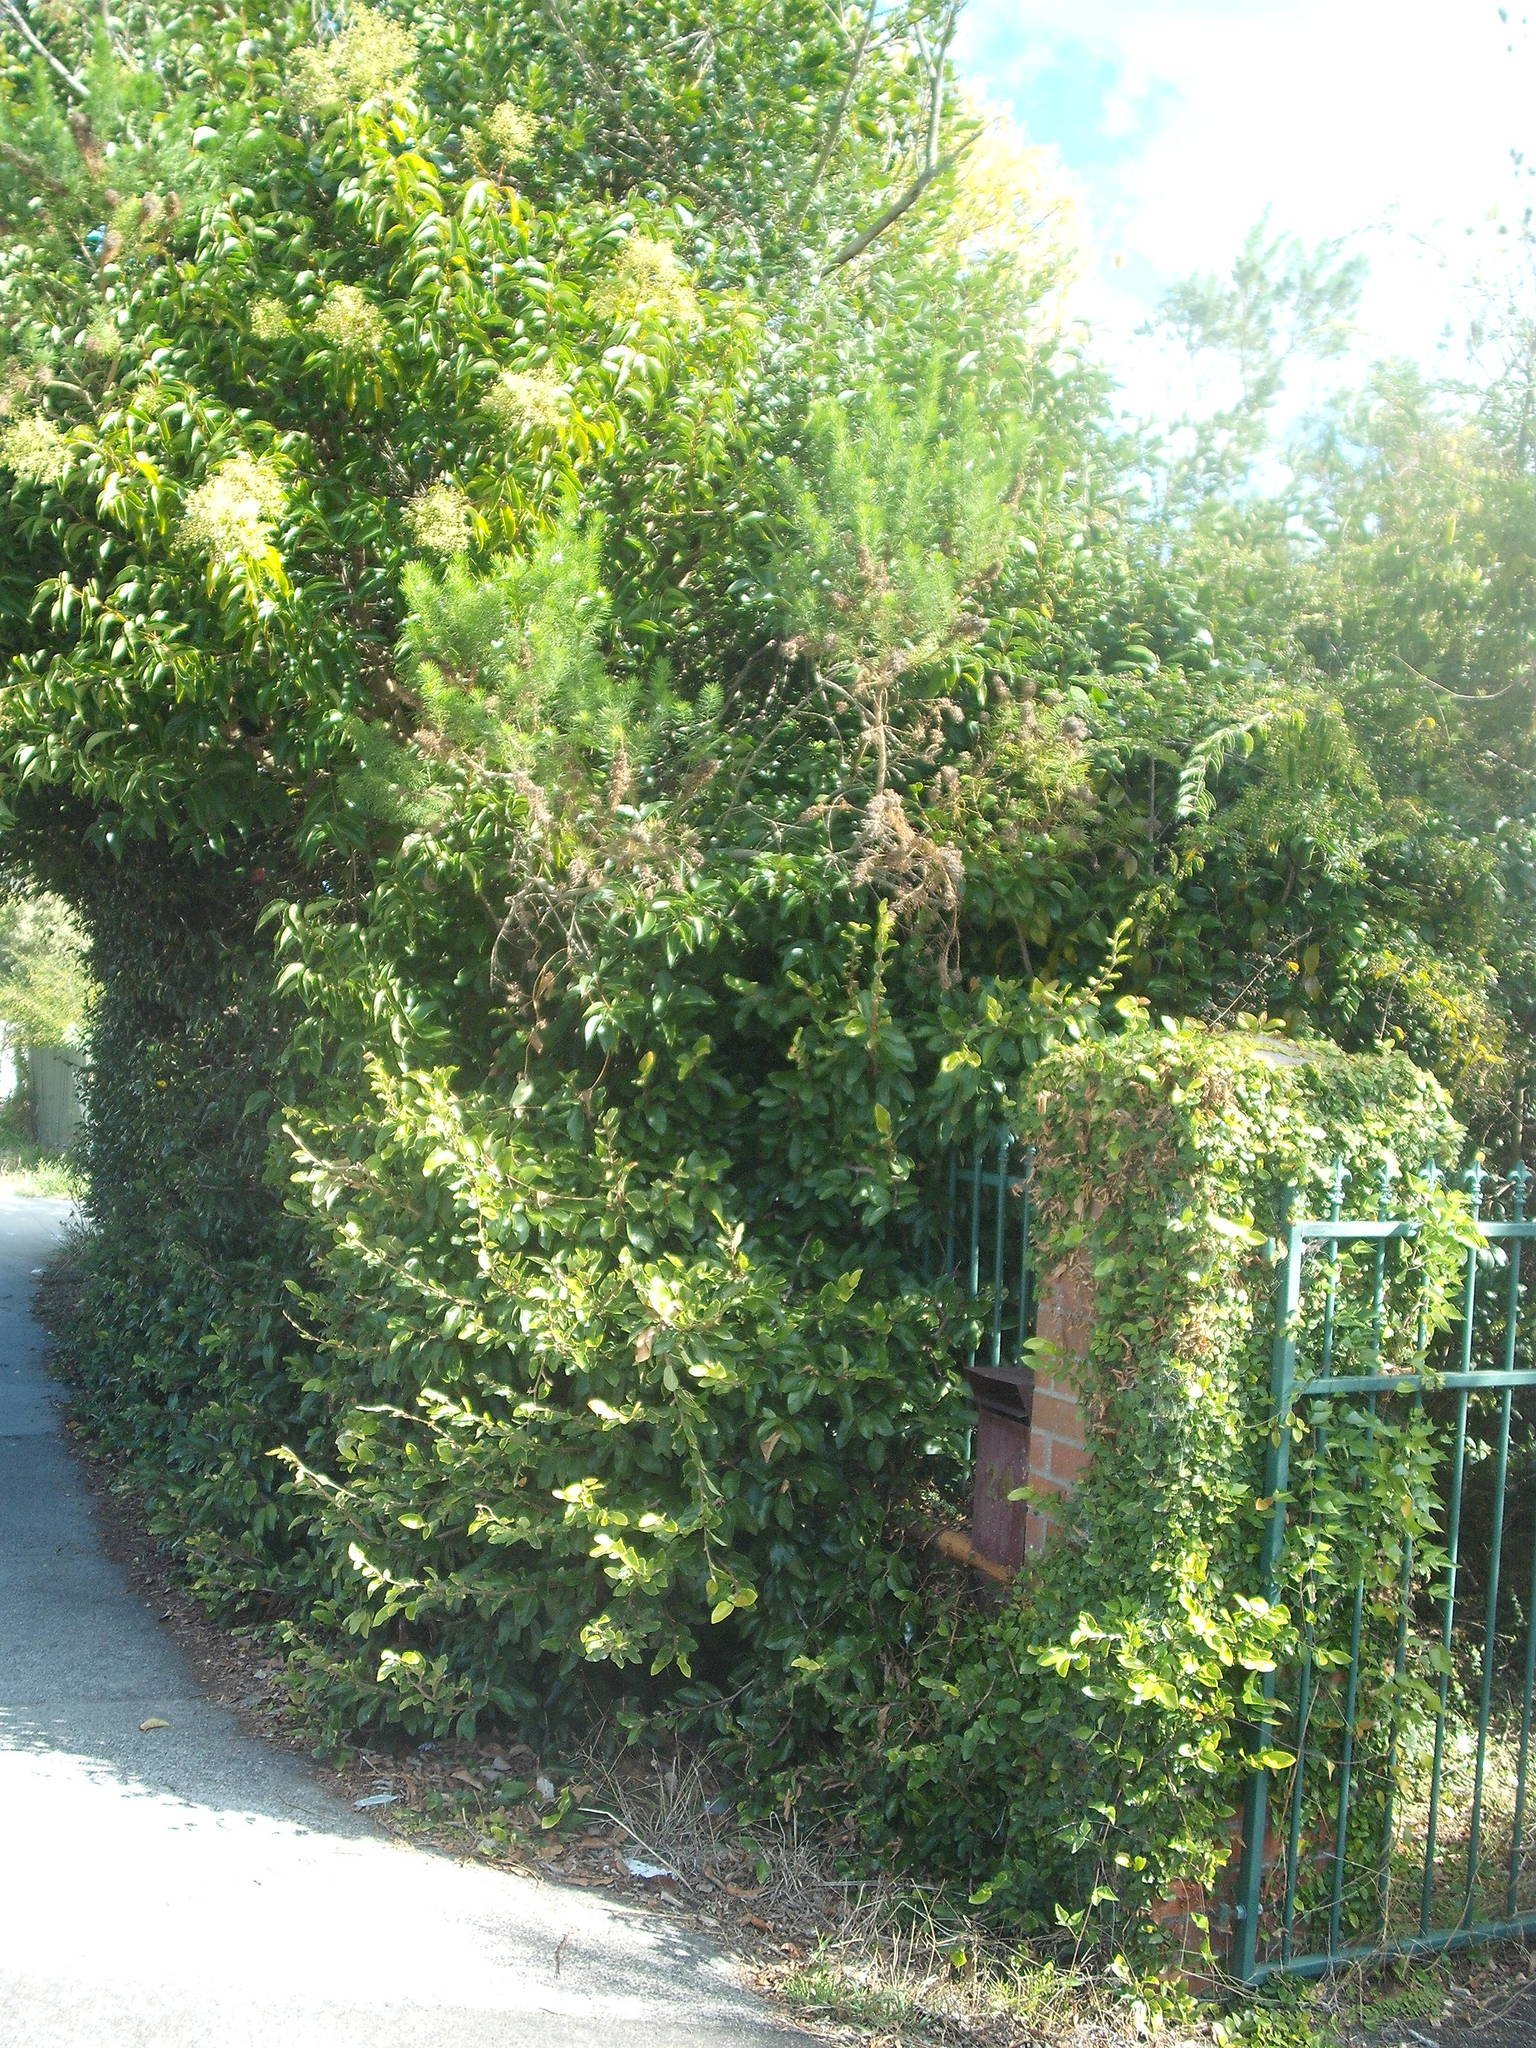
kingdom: Plantae
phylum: Tracheophyta
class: Magnoliopsida
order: Fabales
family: Fabaceae
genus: Psoralea
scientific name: Psoralea pinnata
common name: African scurfpea
